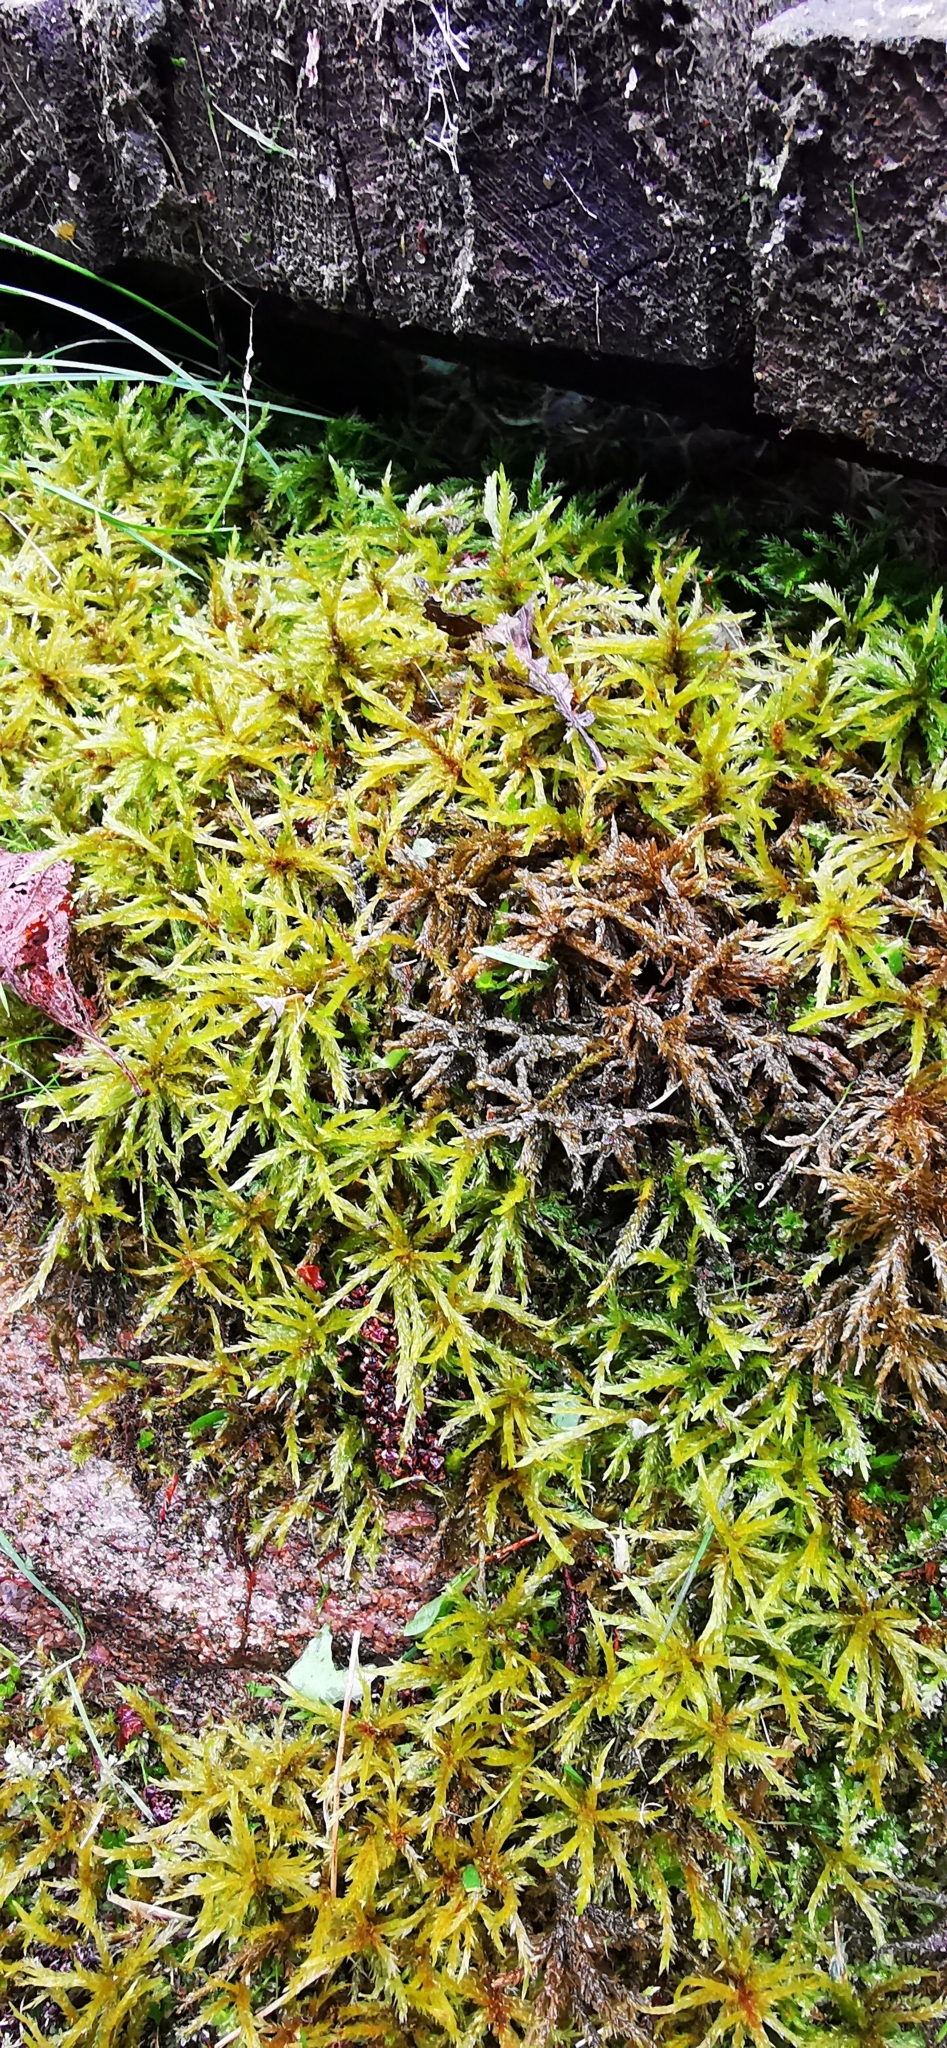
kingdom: Plantae
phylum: Bryophyta
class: Bryopsida
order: Hypnales
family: Climaciaceae
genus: Climacium
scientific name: Climacium dendroides
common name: Northern tree moss
